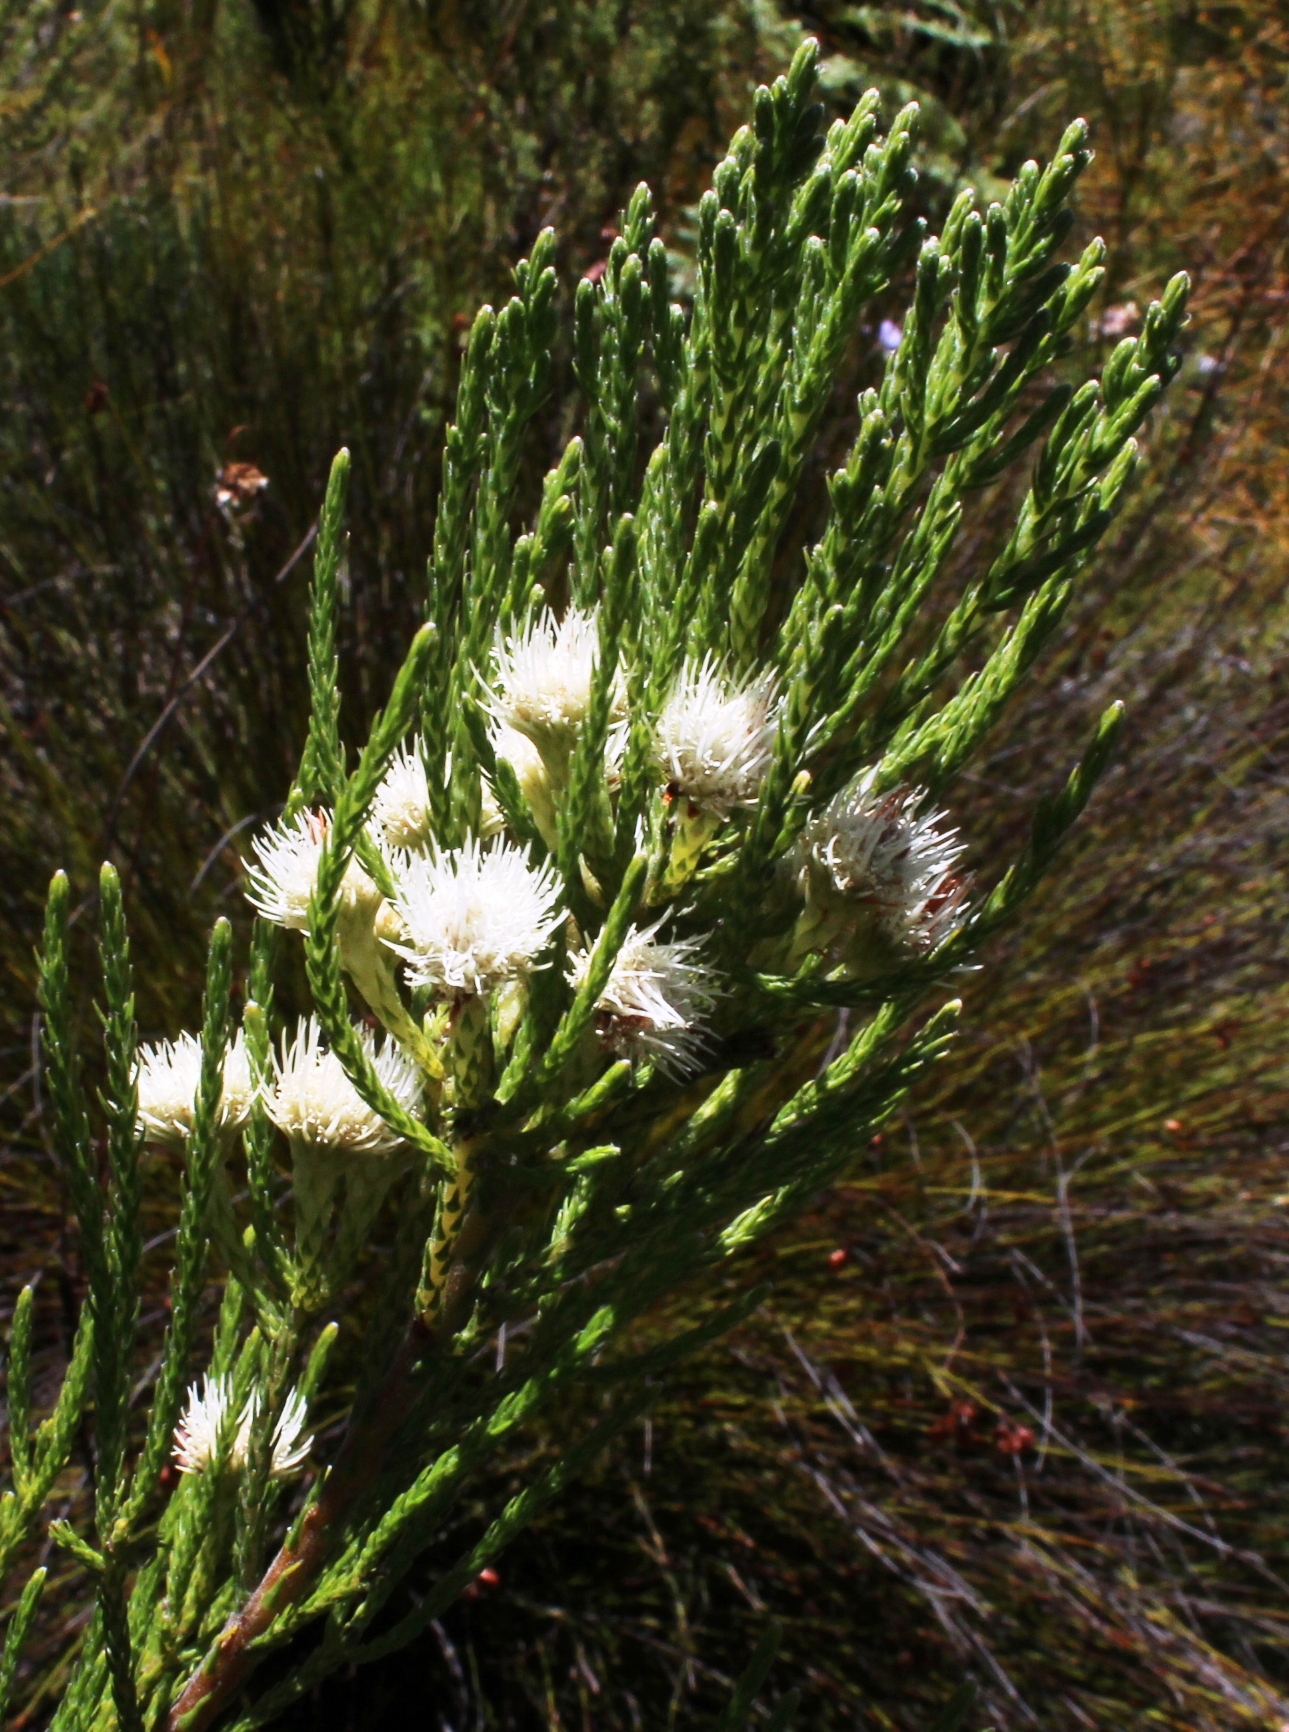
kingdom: Plantae
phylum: Tracheophyta
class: Magnoliopsida
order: Bruniales
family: Bruniaceae
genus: Brunia
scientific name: Brunia paleacea
